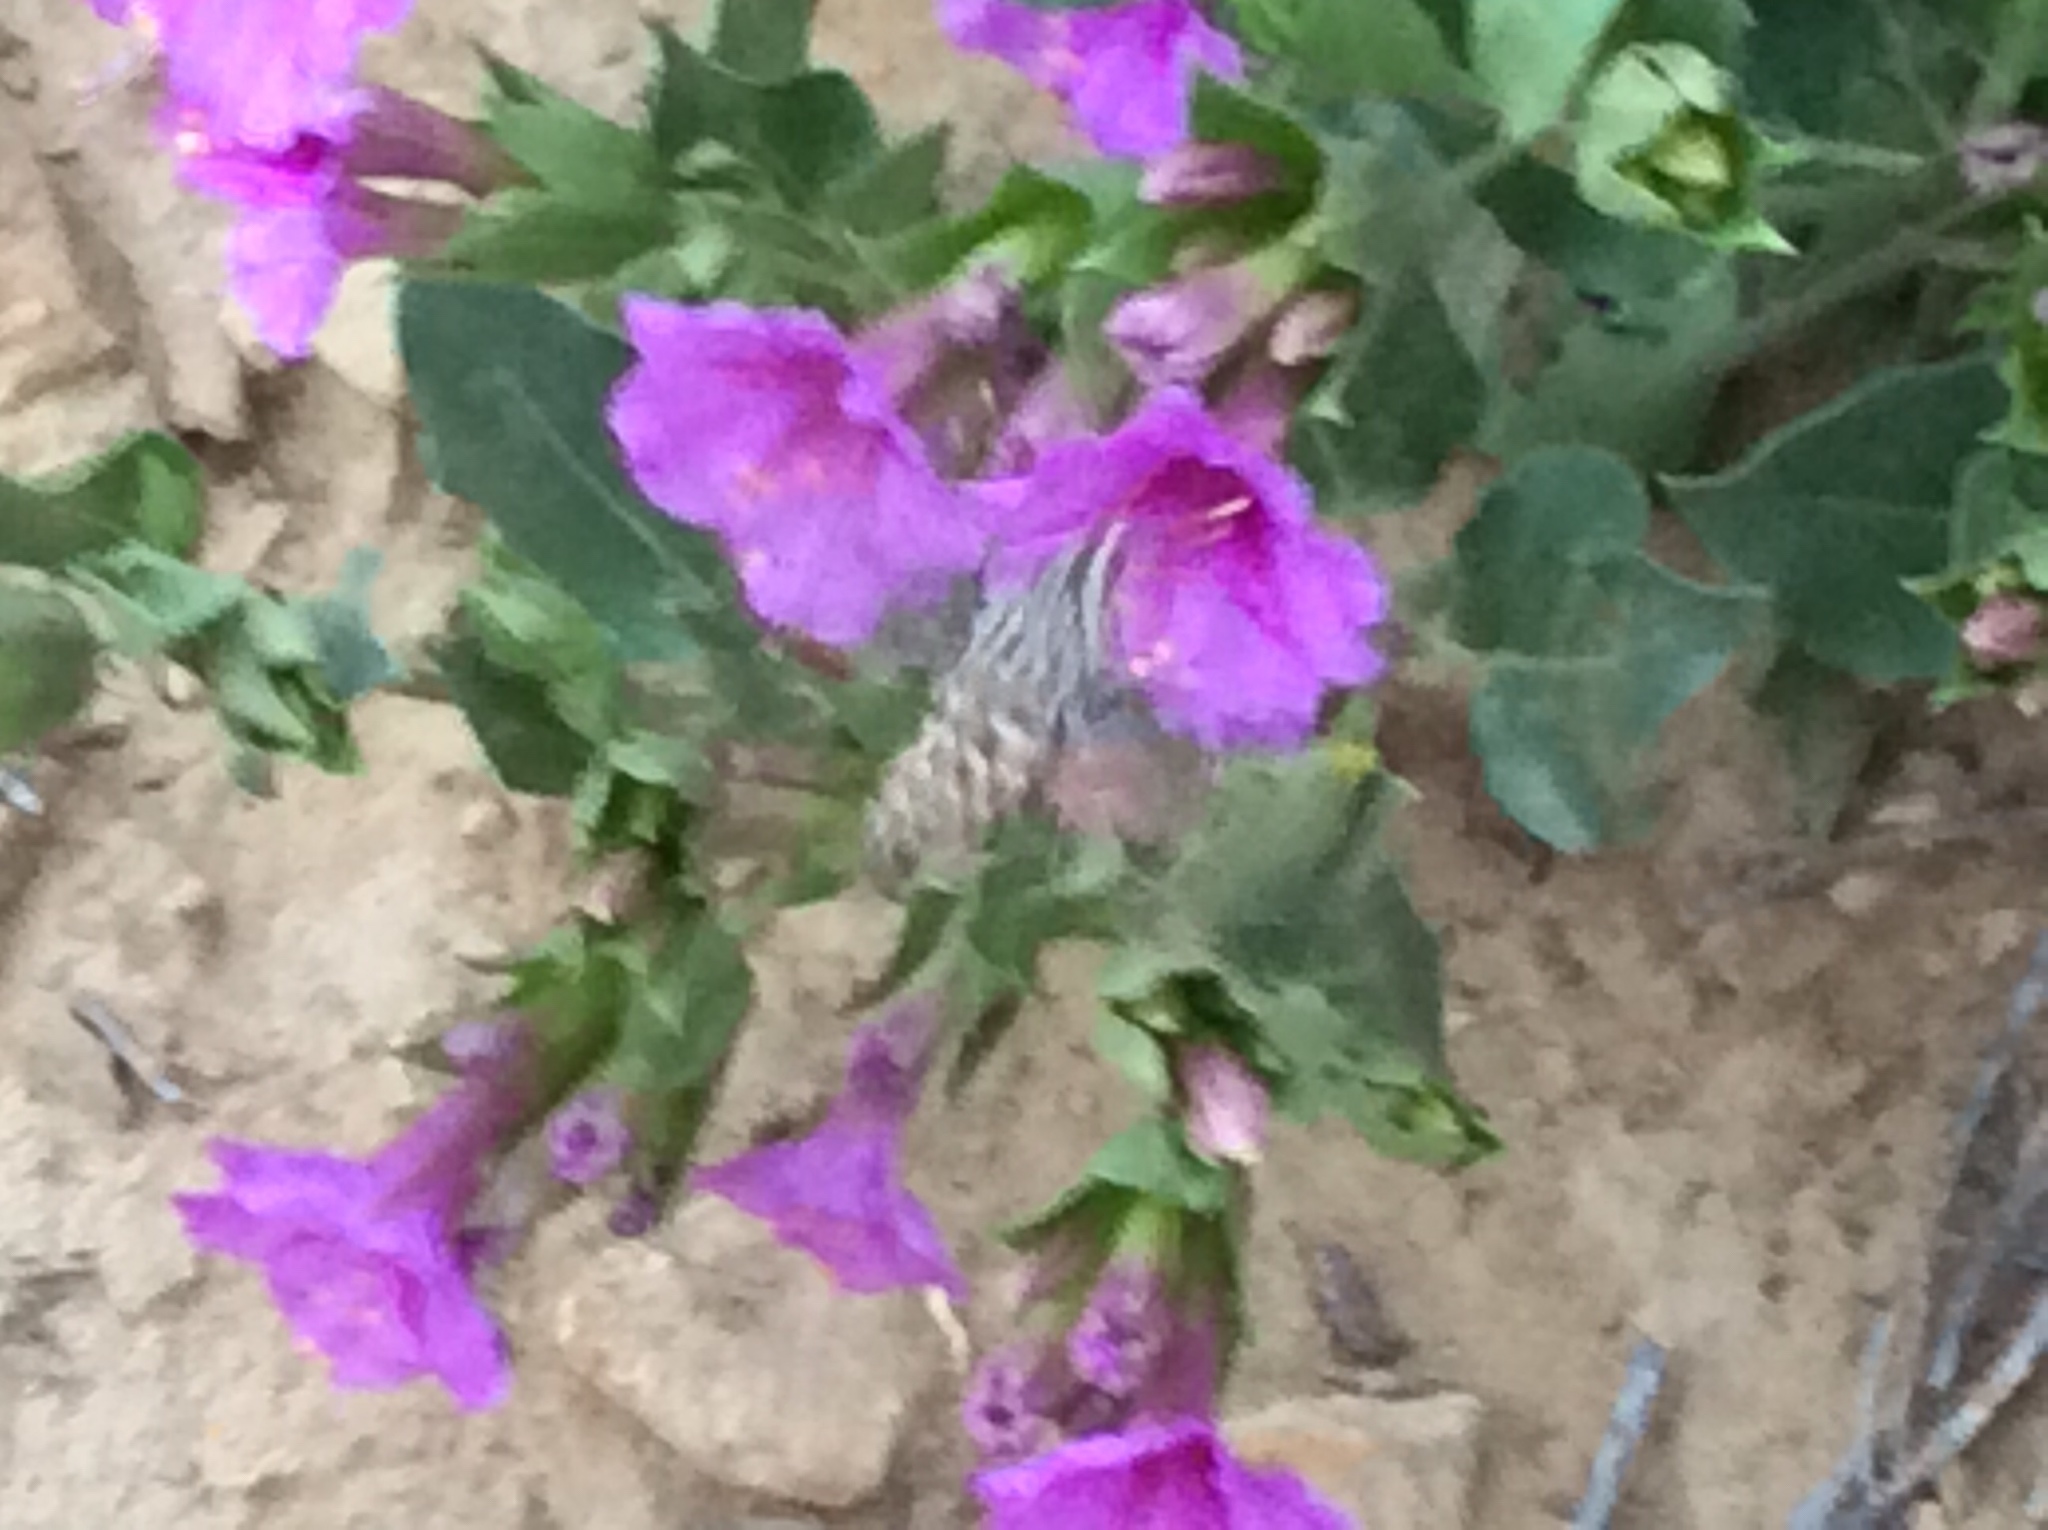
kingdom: Animalia
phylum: Arthropoda
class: Insecta
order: Lepidoptera
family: Sphingidae
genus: Hyles
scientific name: Hyles lineata
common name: White-lined sphinx
